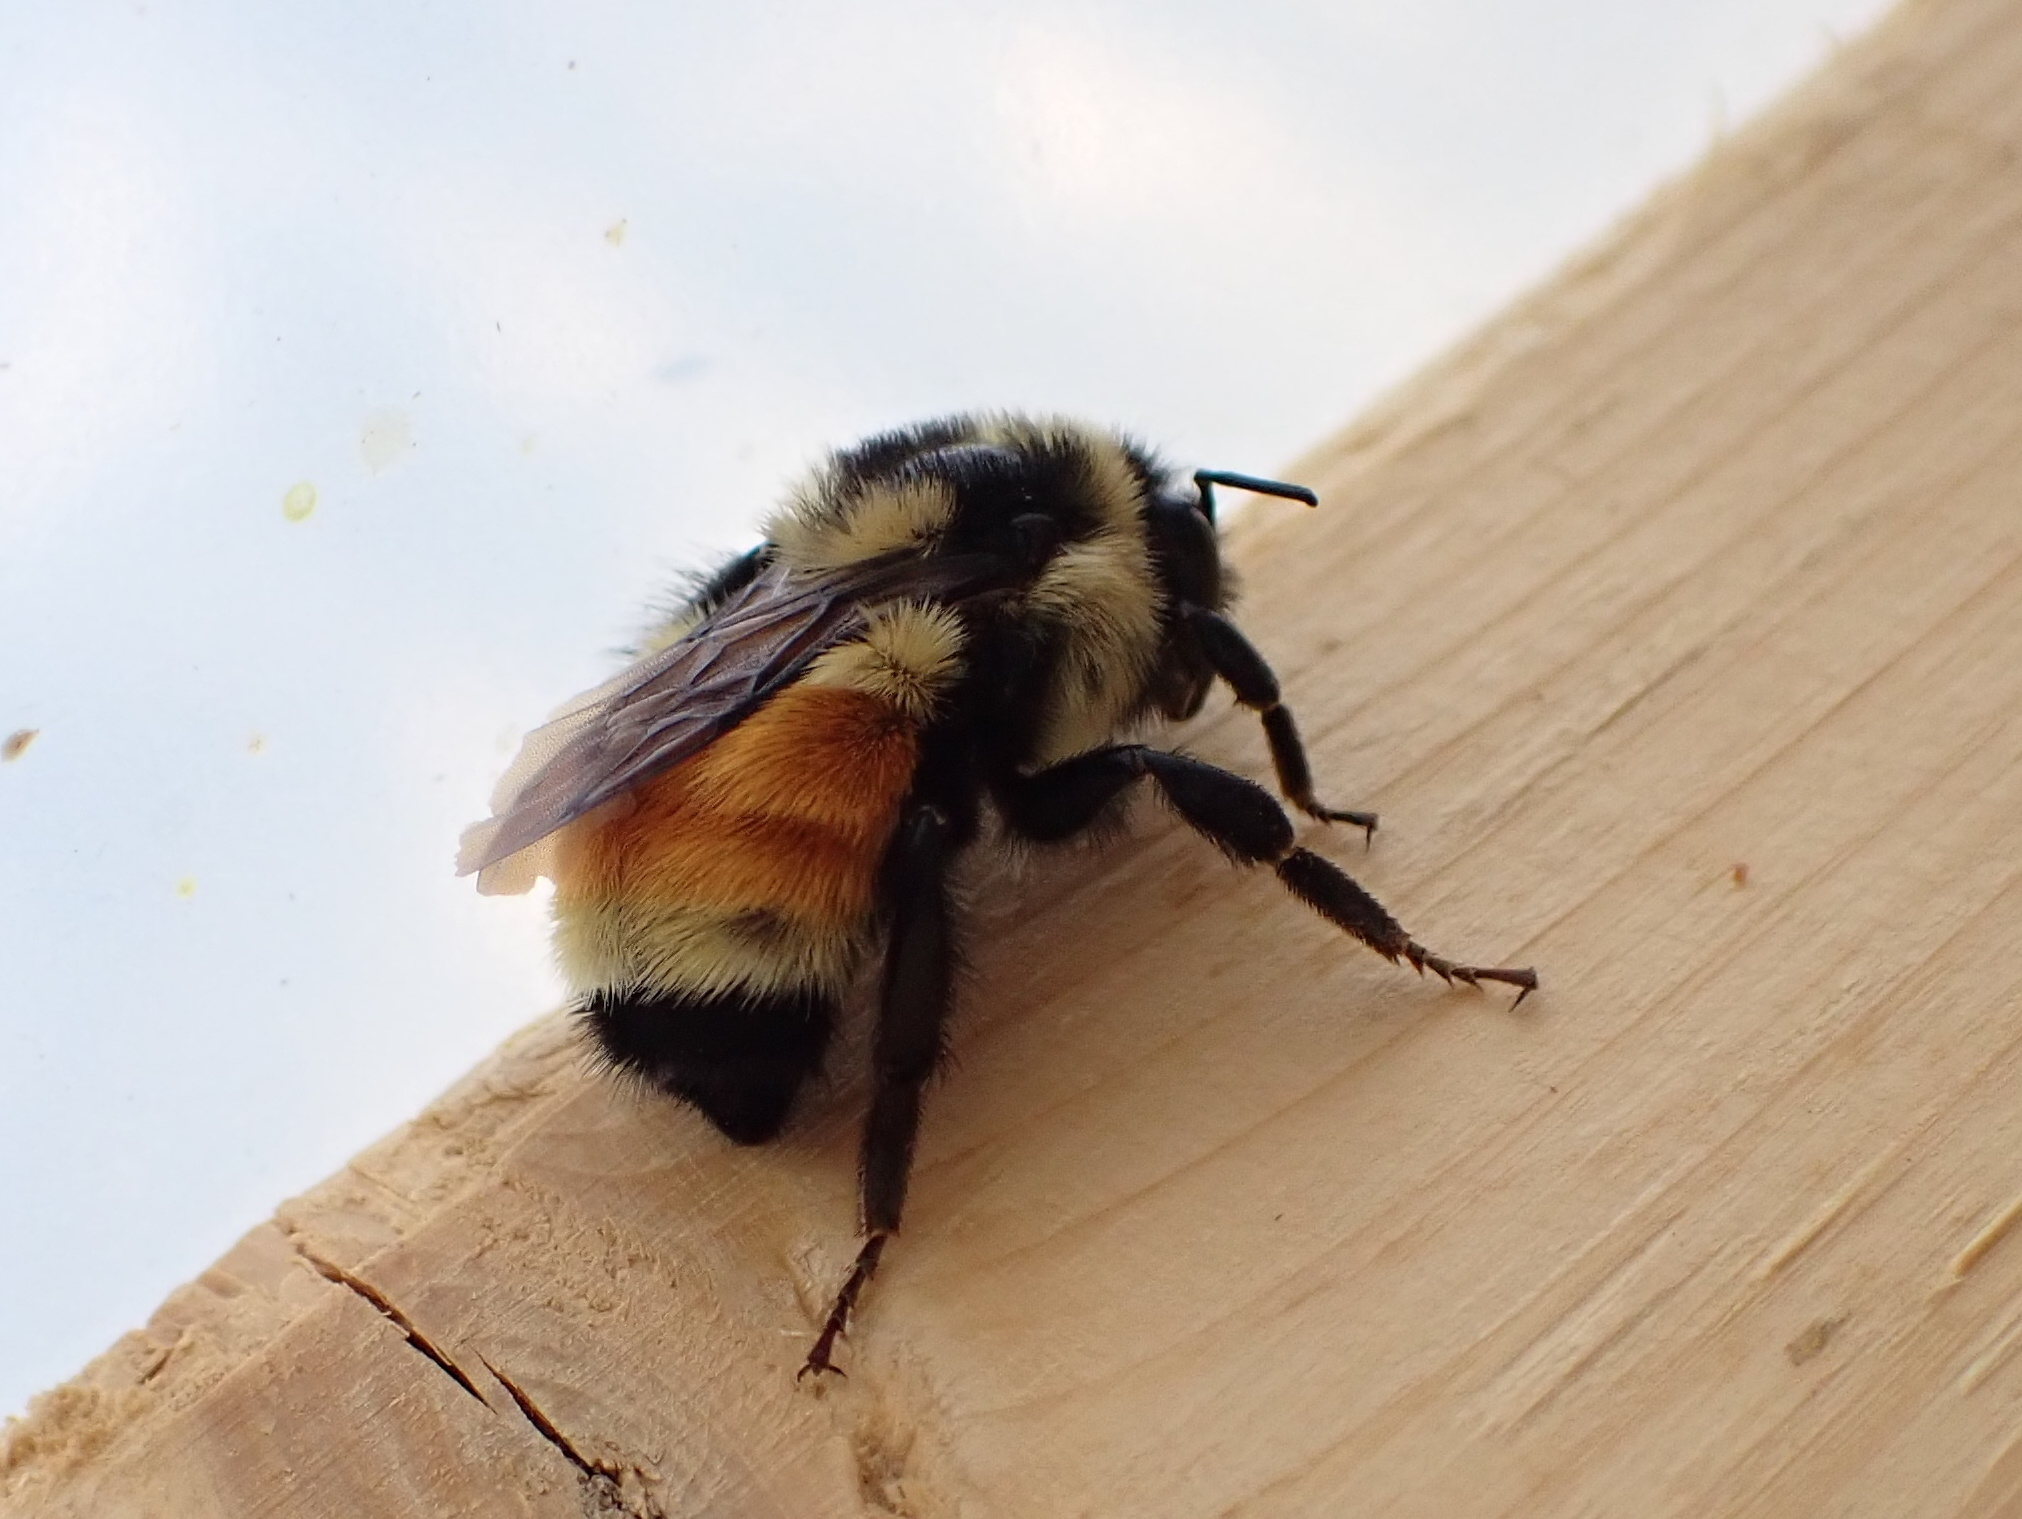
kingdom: Animalia
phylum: Arthropoda
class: Insecta
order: Hymenoptera
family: Apidae
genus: Bombus
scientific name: Bombus ternarius
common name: Tri-colored bumble bee
